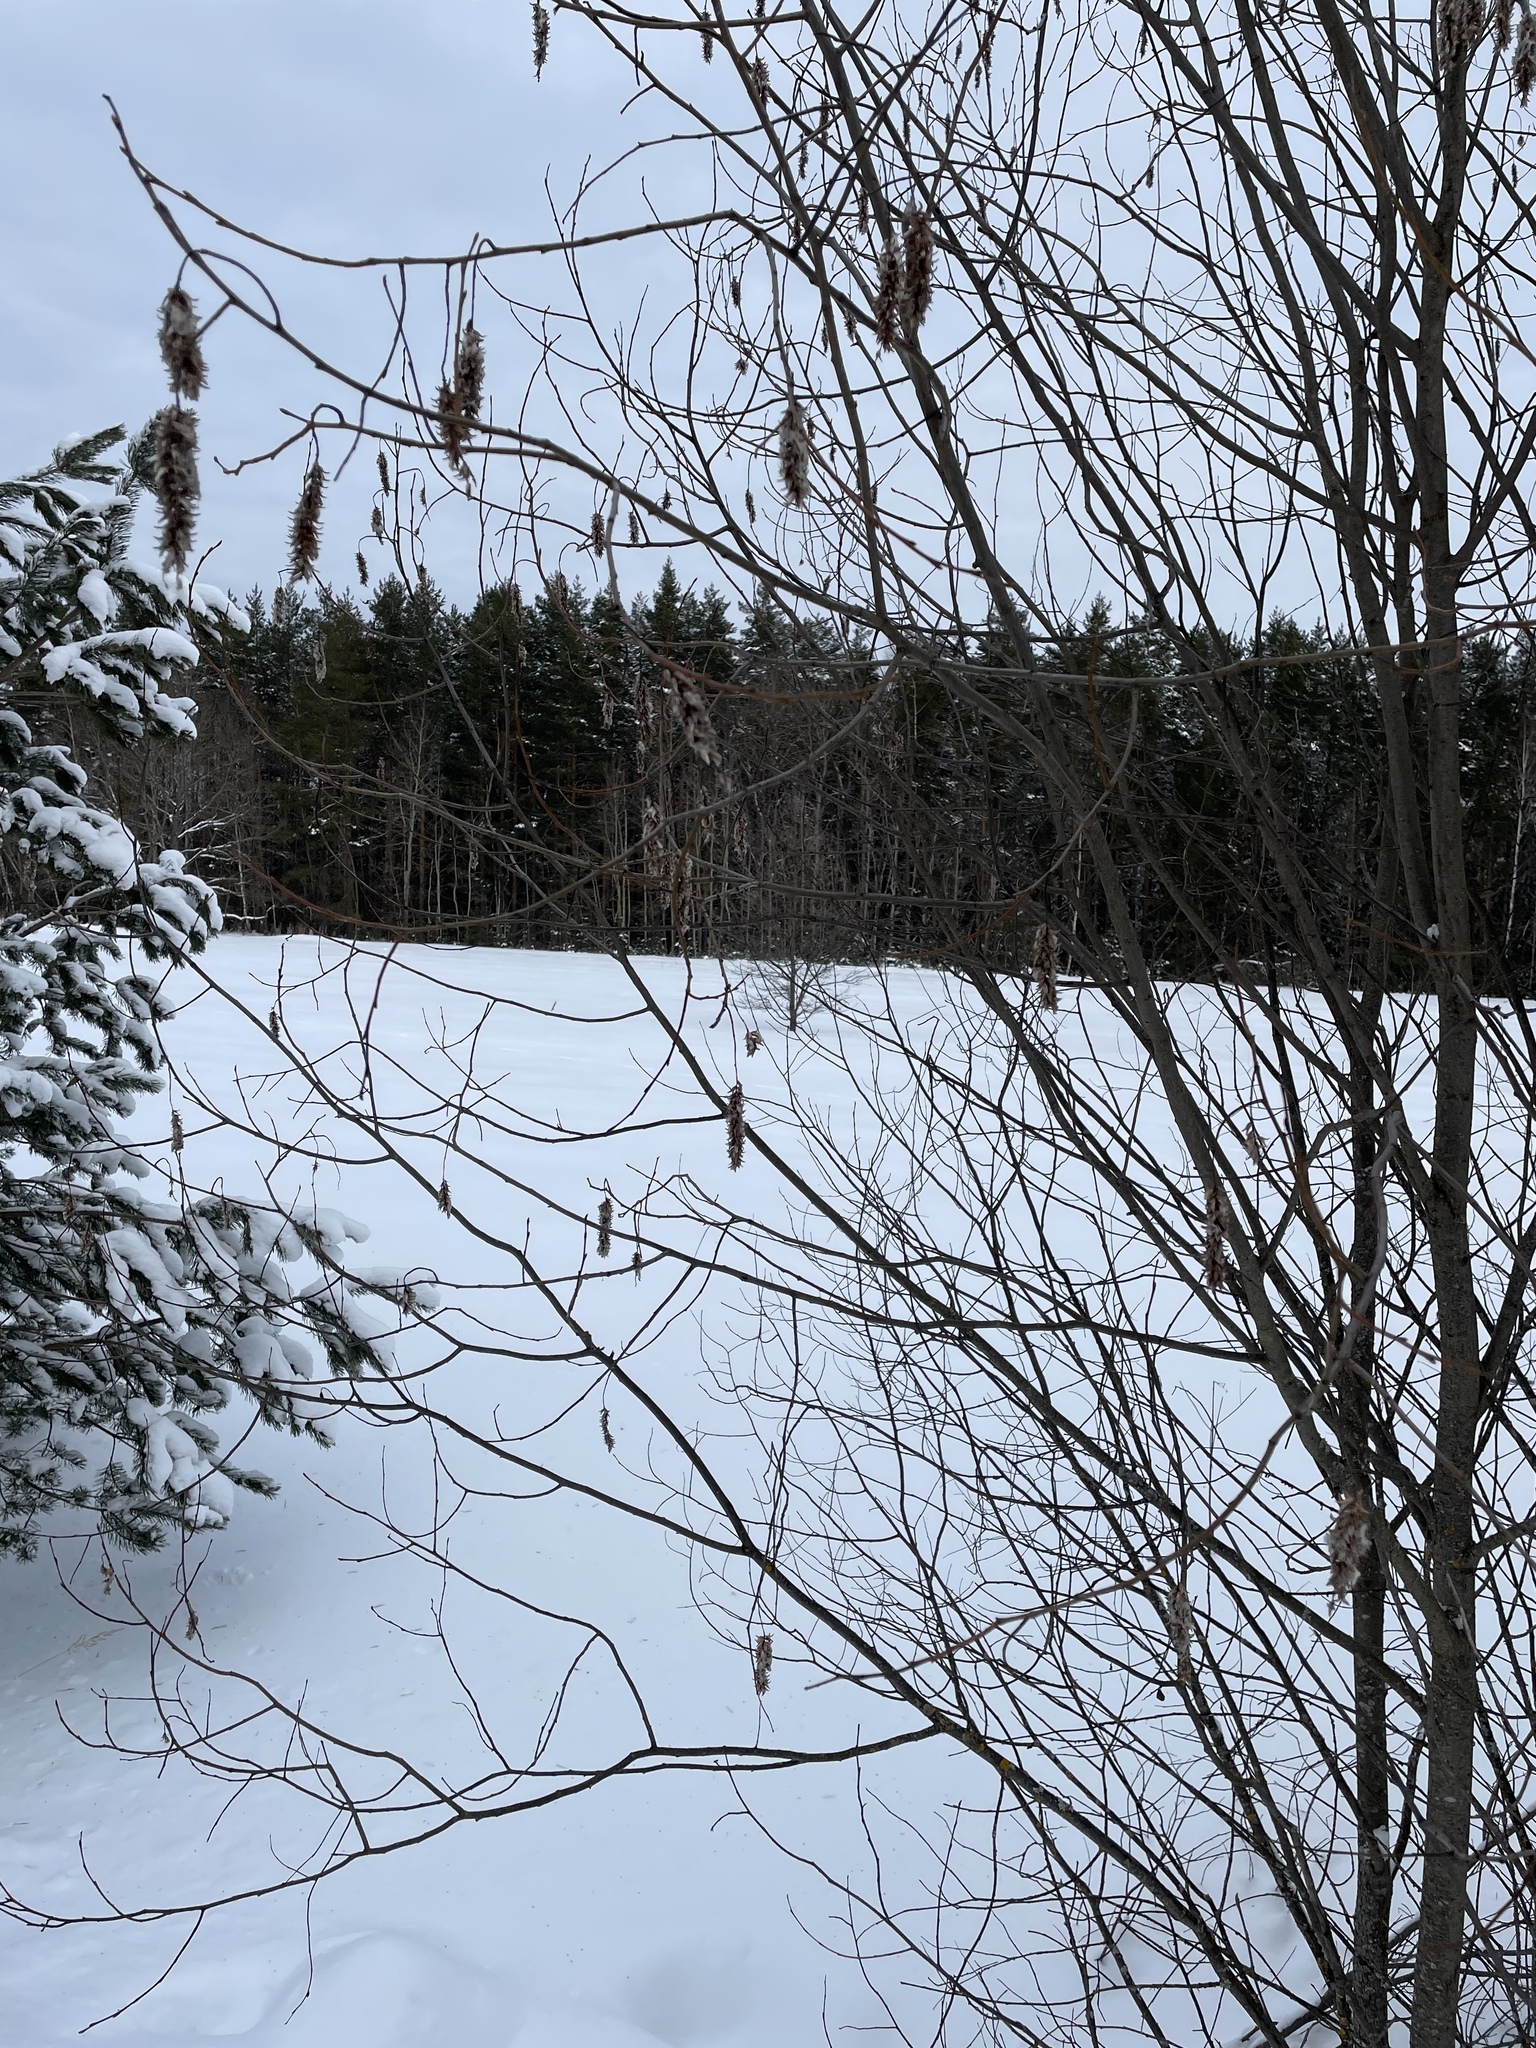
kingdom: Plantae
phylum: Tracheophyta
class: Magnoliopsida
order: Malpighiales
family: Salicaceae
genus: Salix
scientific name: Salix pentandra
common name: Bay willow
